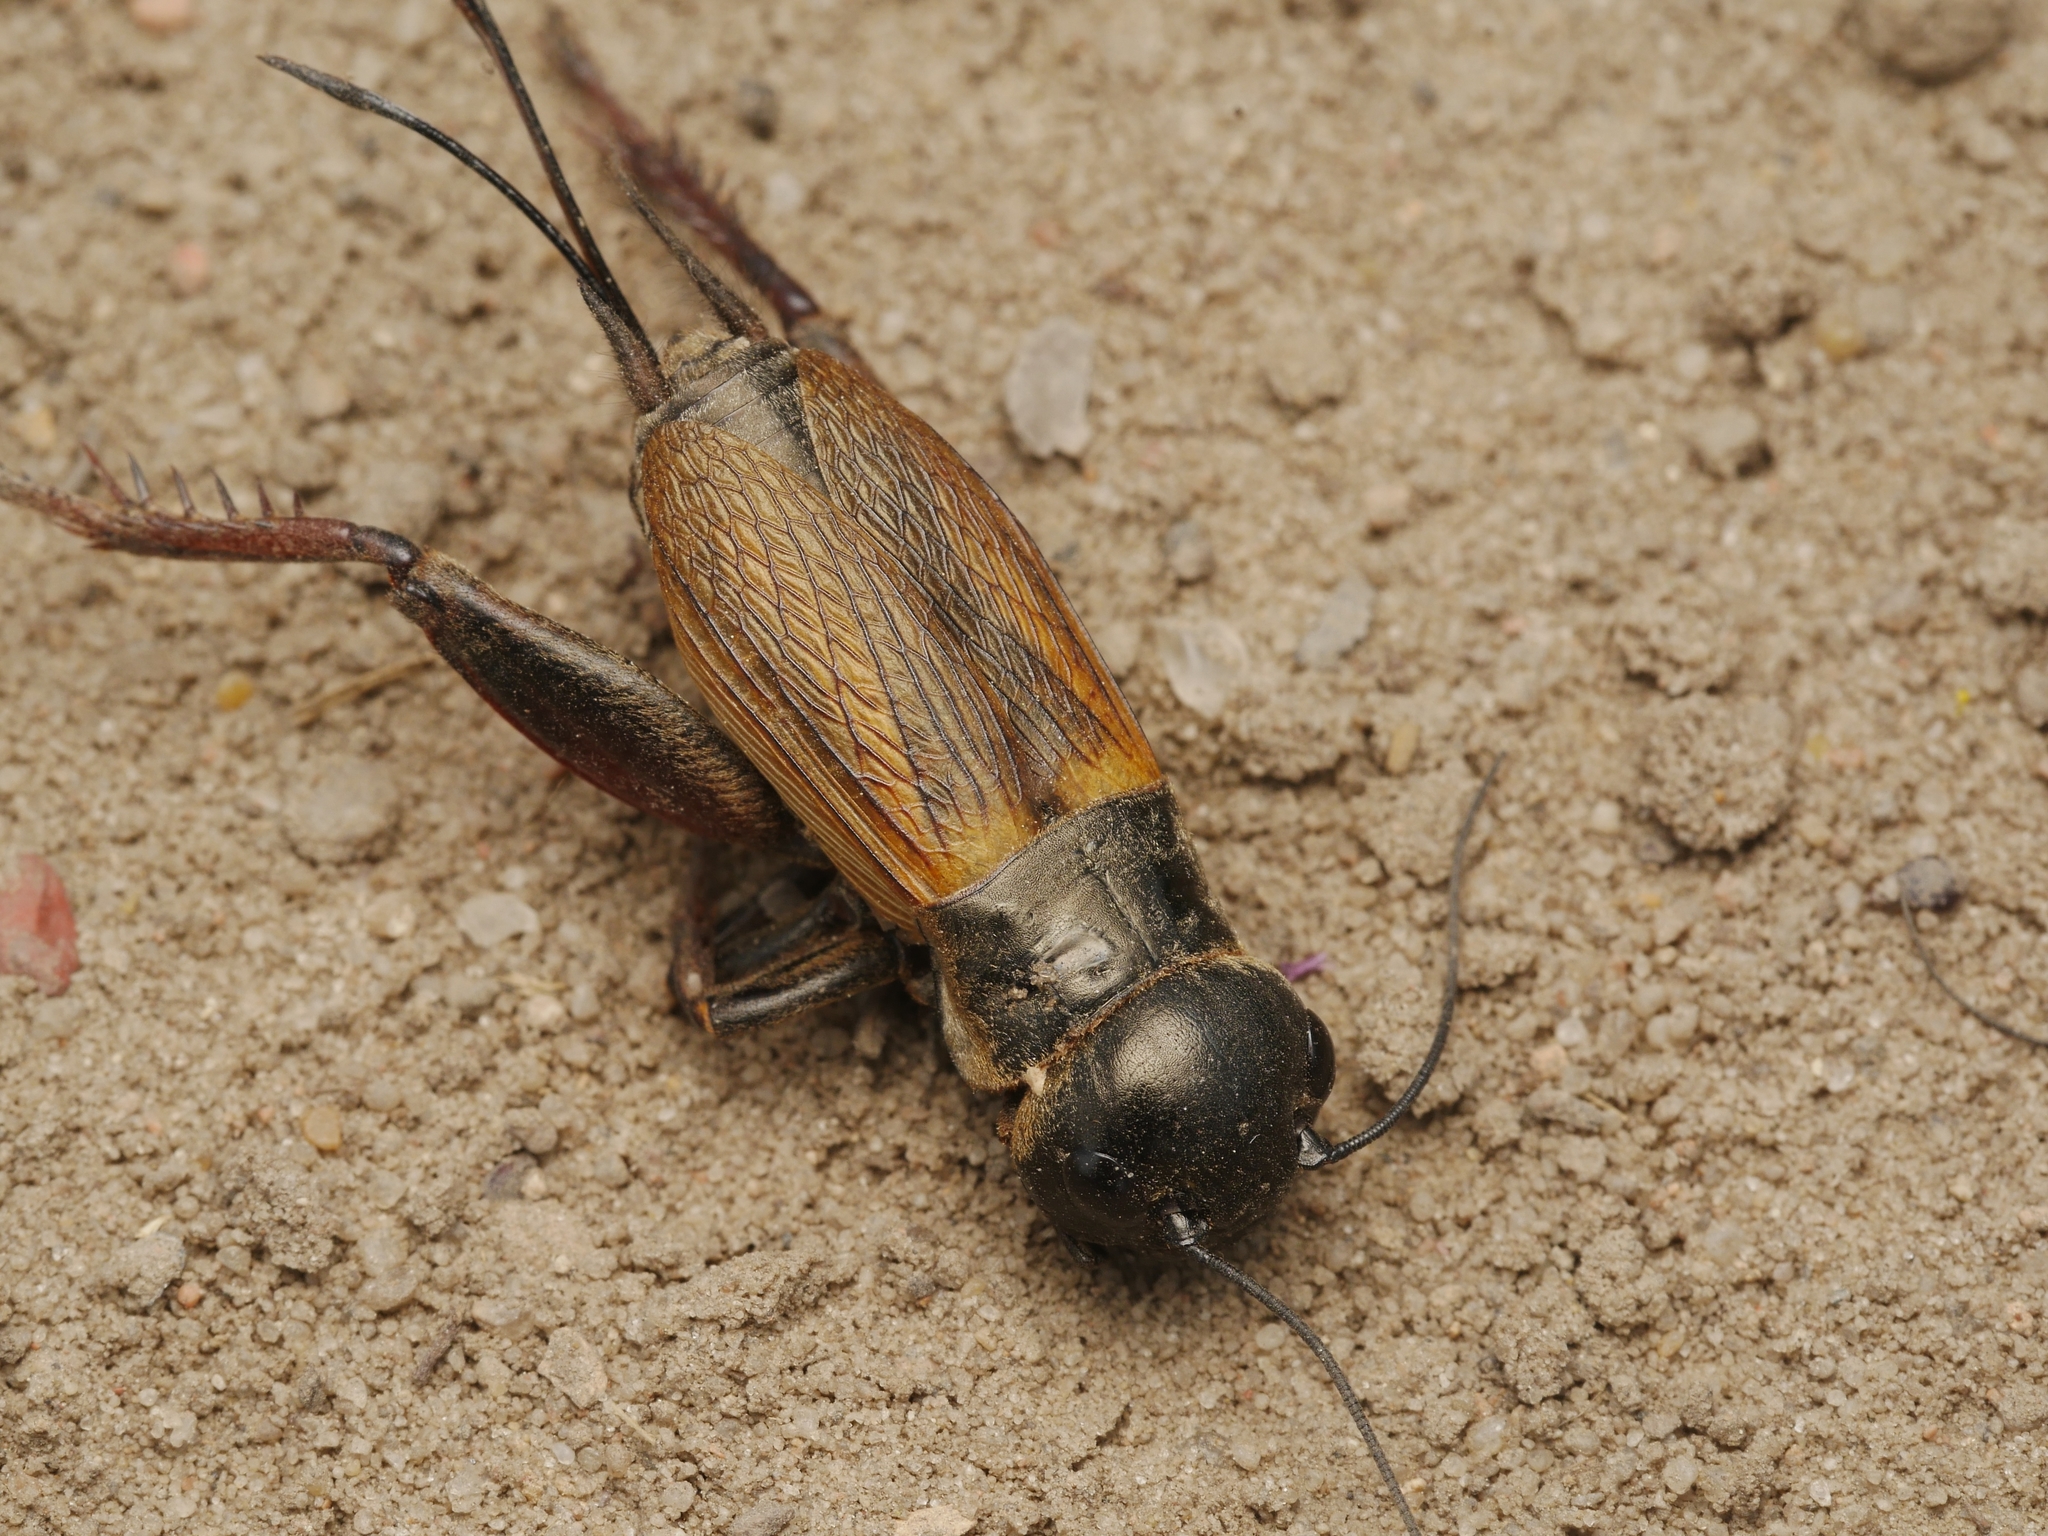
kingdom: Animalia
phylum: Arthropoda
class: Insecta
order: Orthoptera
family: Gryllidae
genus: Gryllus
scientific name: Gryllus campestris
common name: Field cricket
